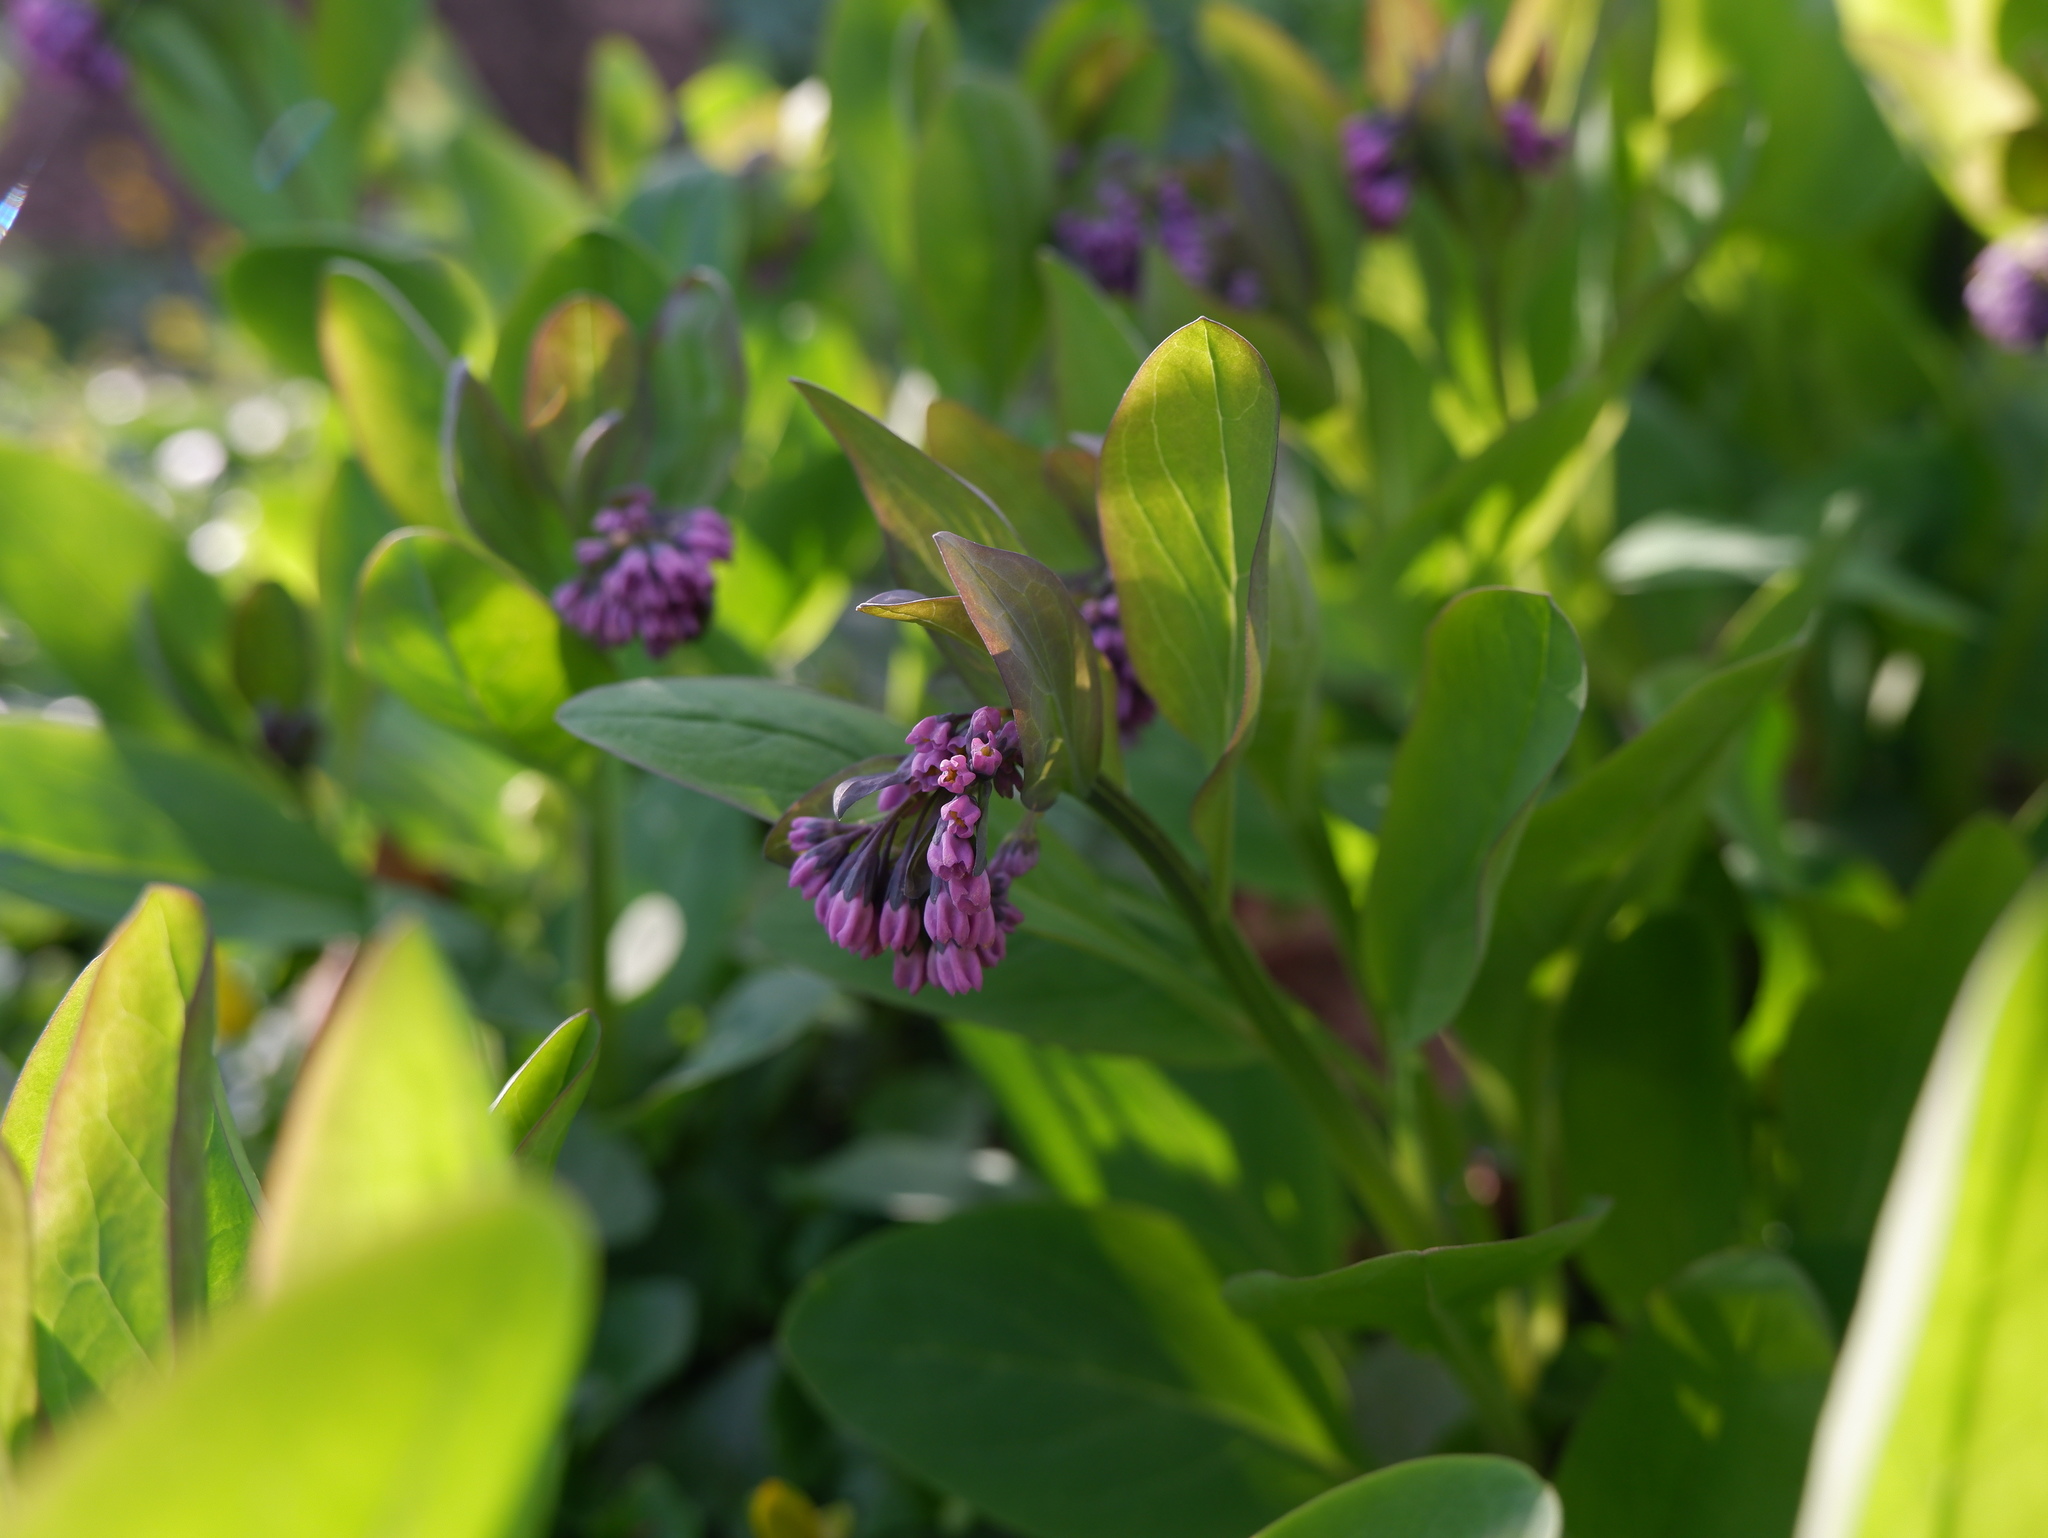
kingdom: Plantae
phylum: Tracheophyta
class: Magnoliopsida
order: Boraginales
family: Boraginaceae
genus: Mertensia
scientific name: Mertensia virginica
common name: Virginia bluebells
